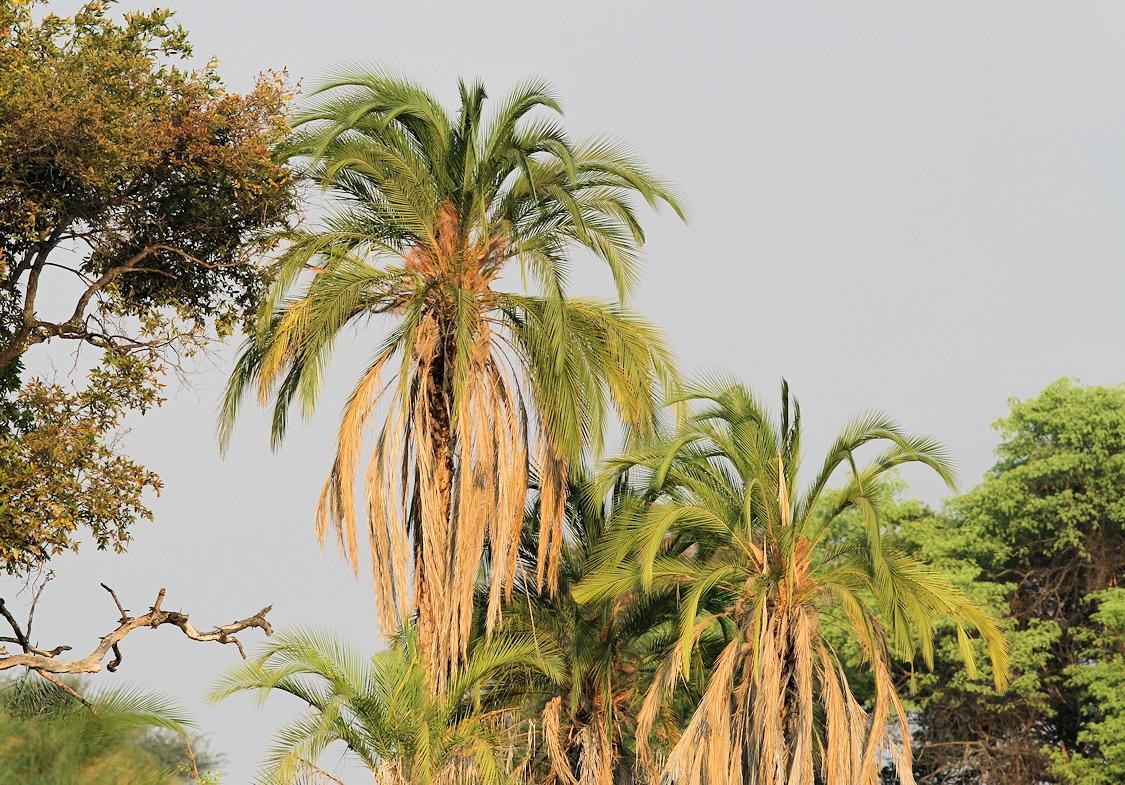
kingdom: Plantae
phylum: Tracheophyta
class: Liliopsida
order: Arecales
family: Arecaceae
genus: Phoenix
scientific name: Phoenix reclinata
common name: Senegal date palm
